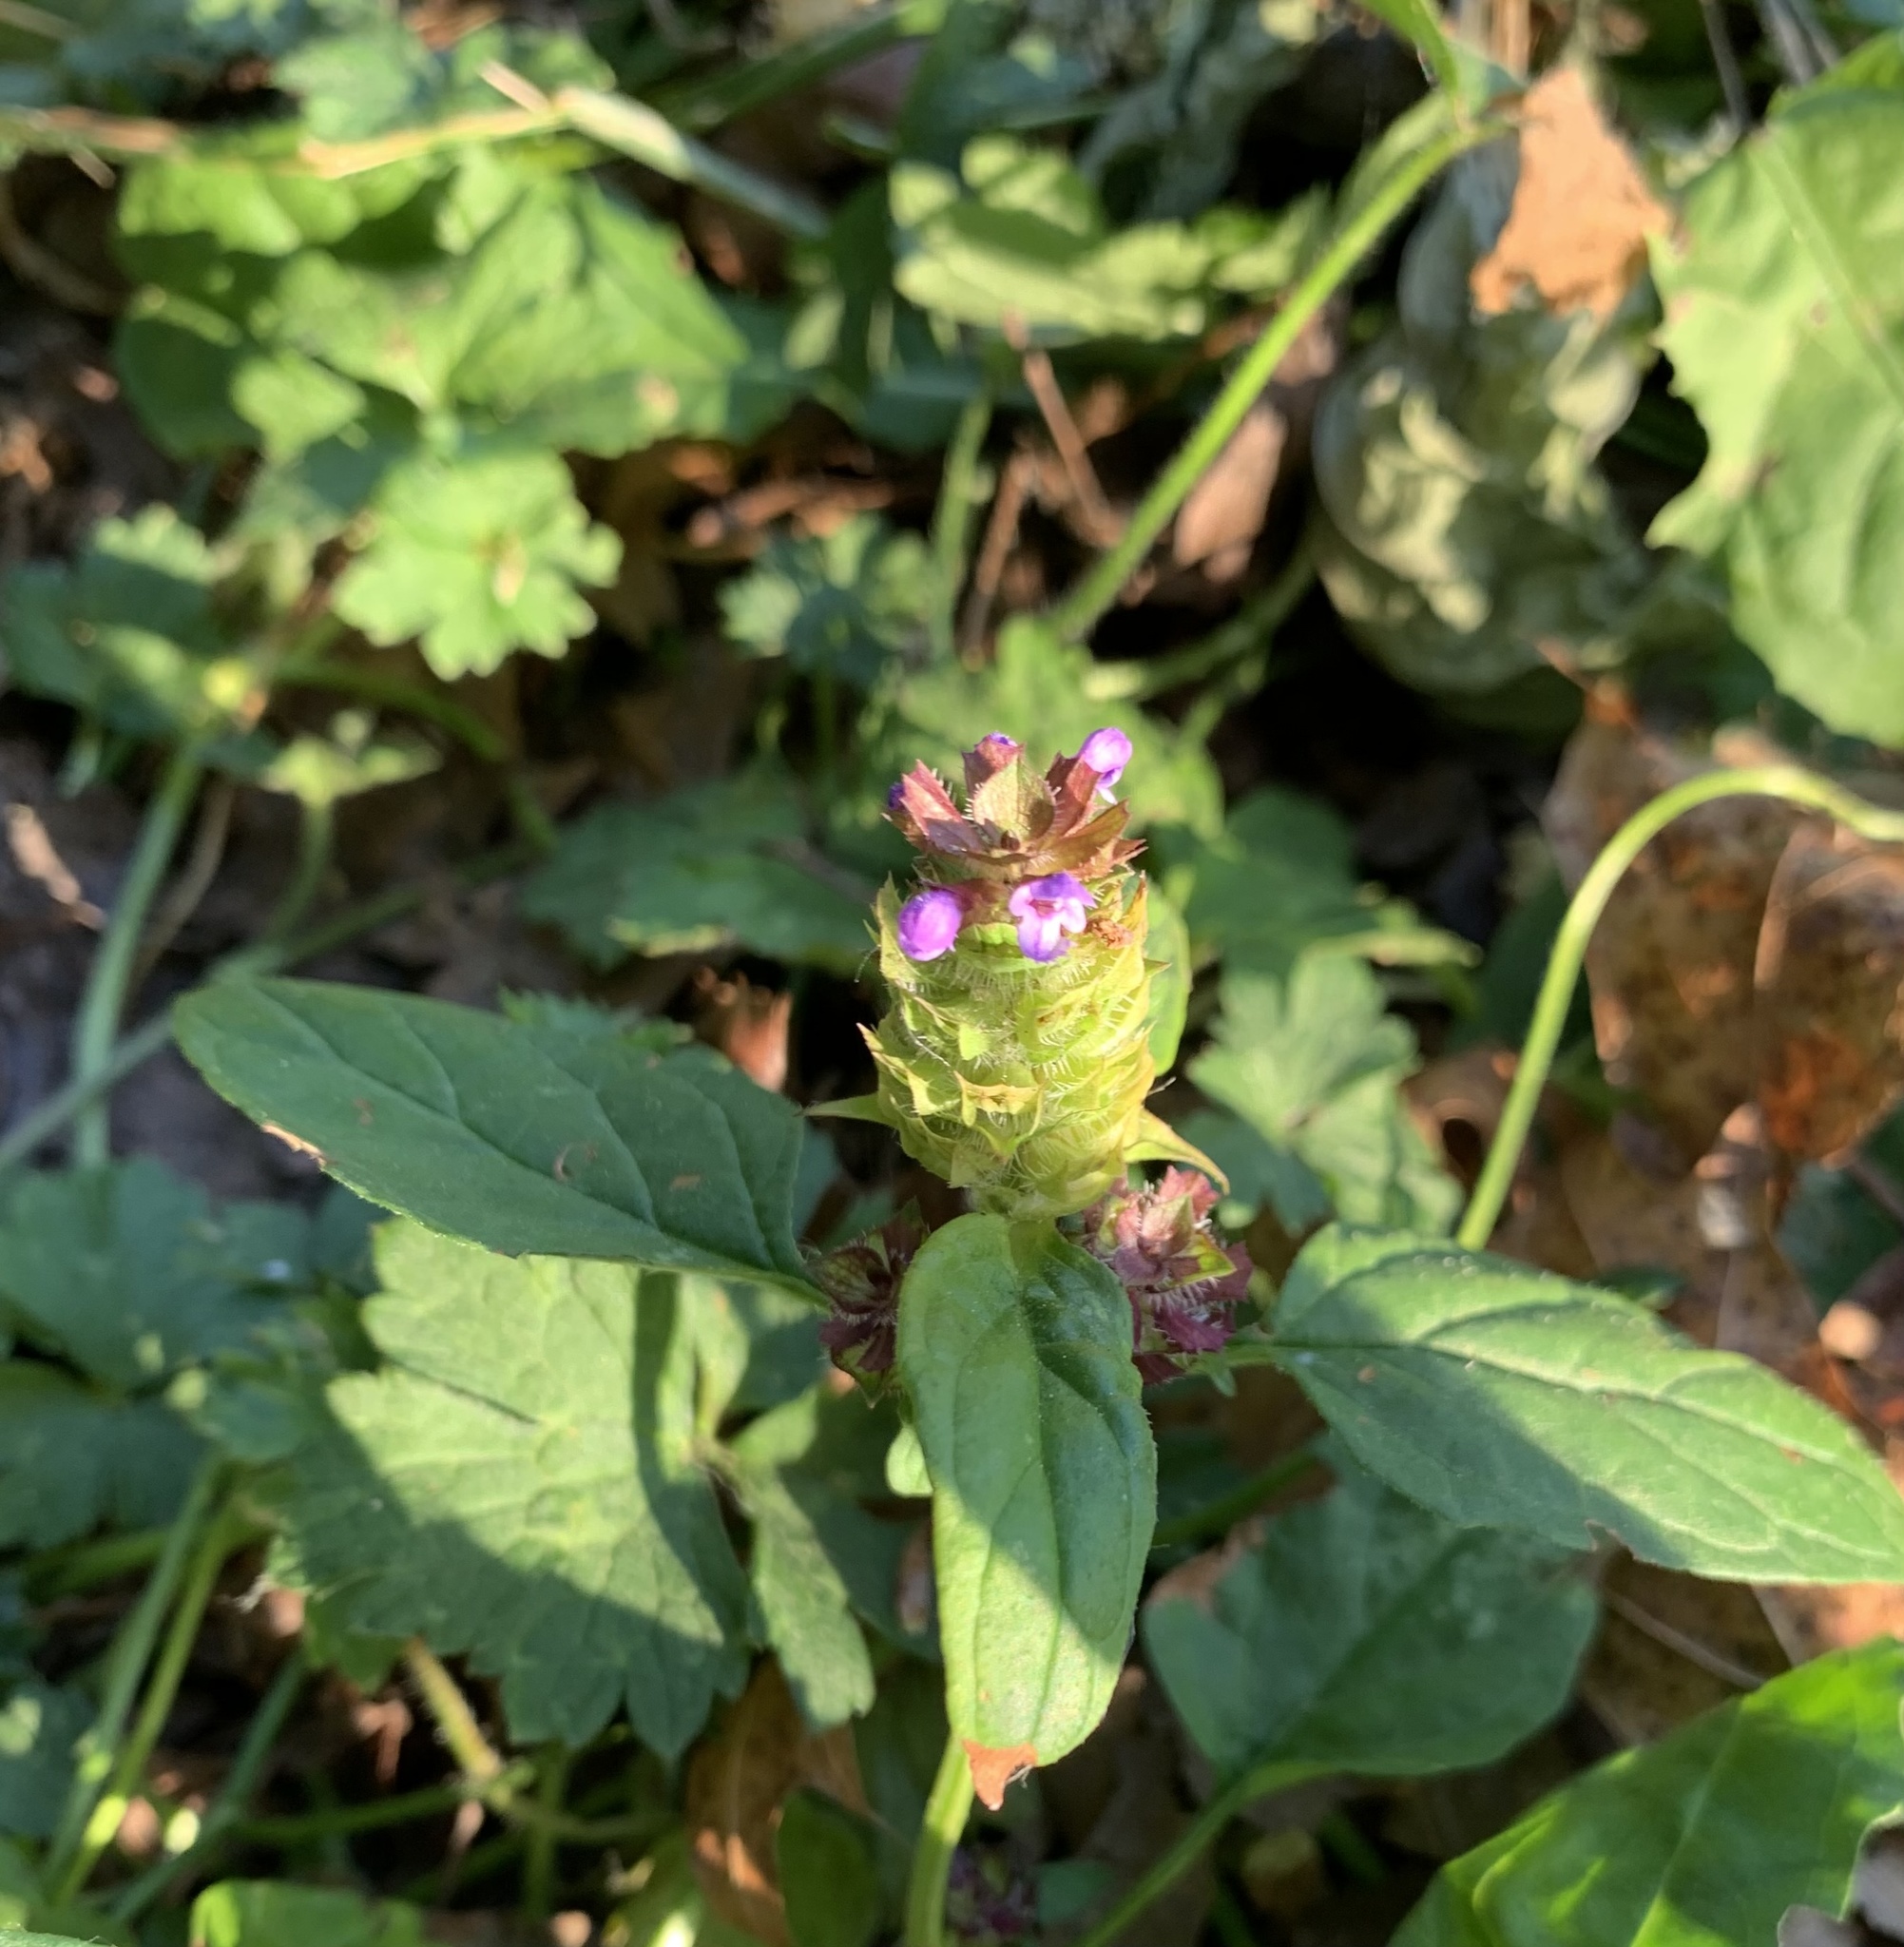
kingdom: Plantae
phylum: Tracheophyta
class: Magnoliopsida
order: Lamiales
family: Lamiaceae
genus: Prunella
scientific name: Prunella vulgaris
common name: Heal-all
